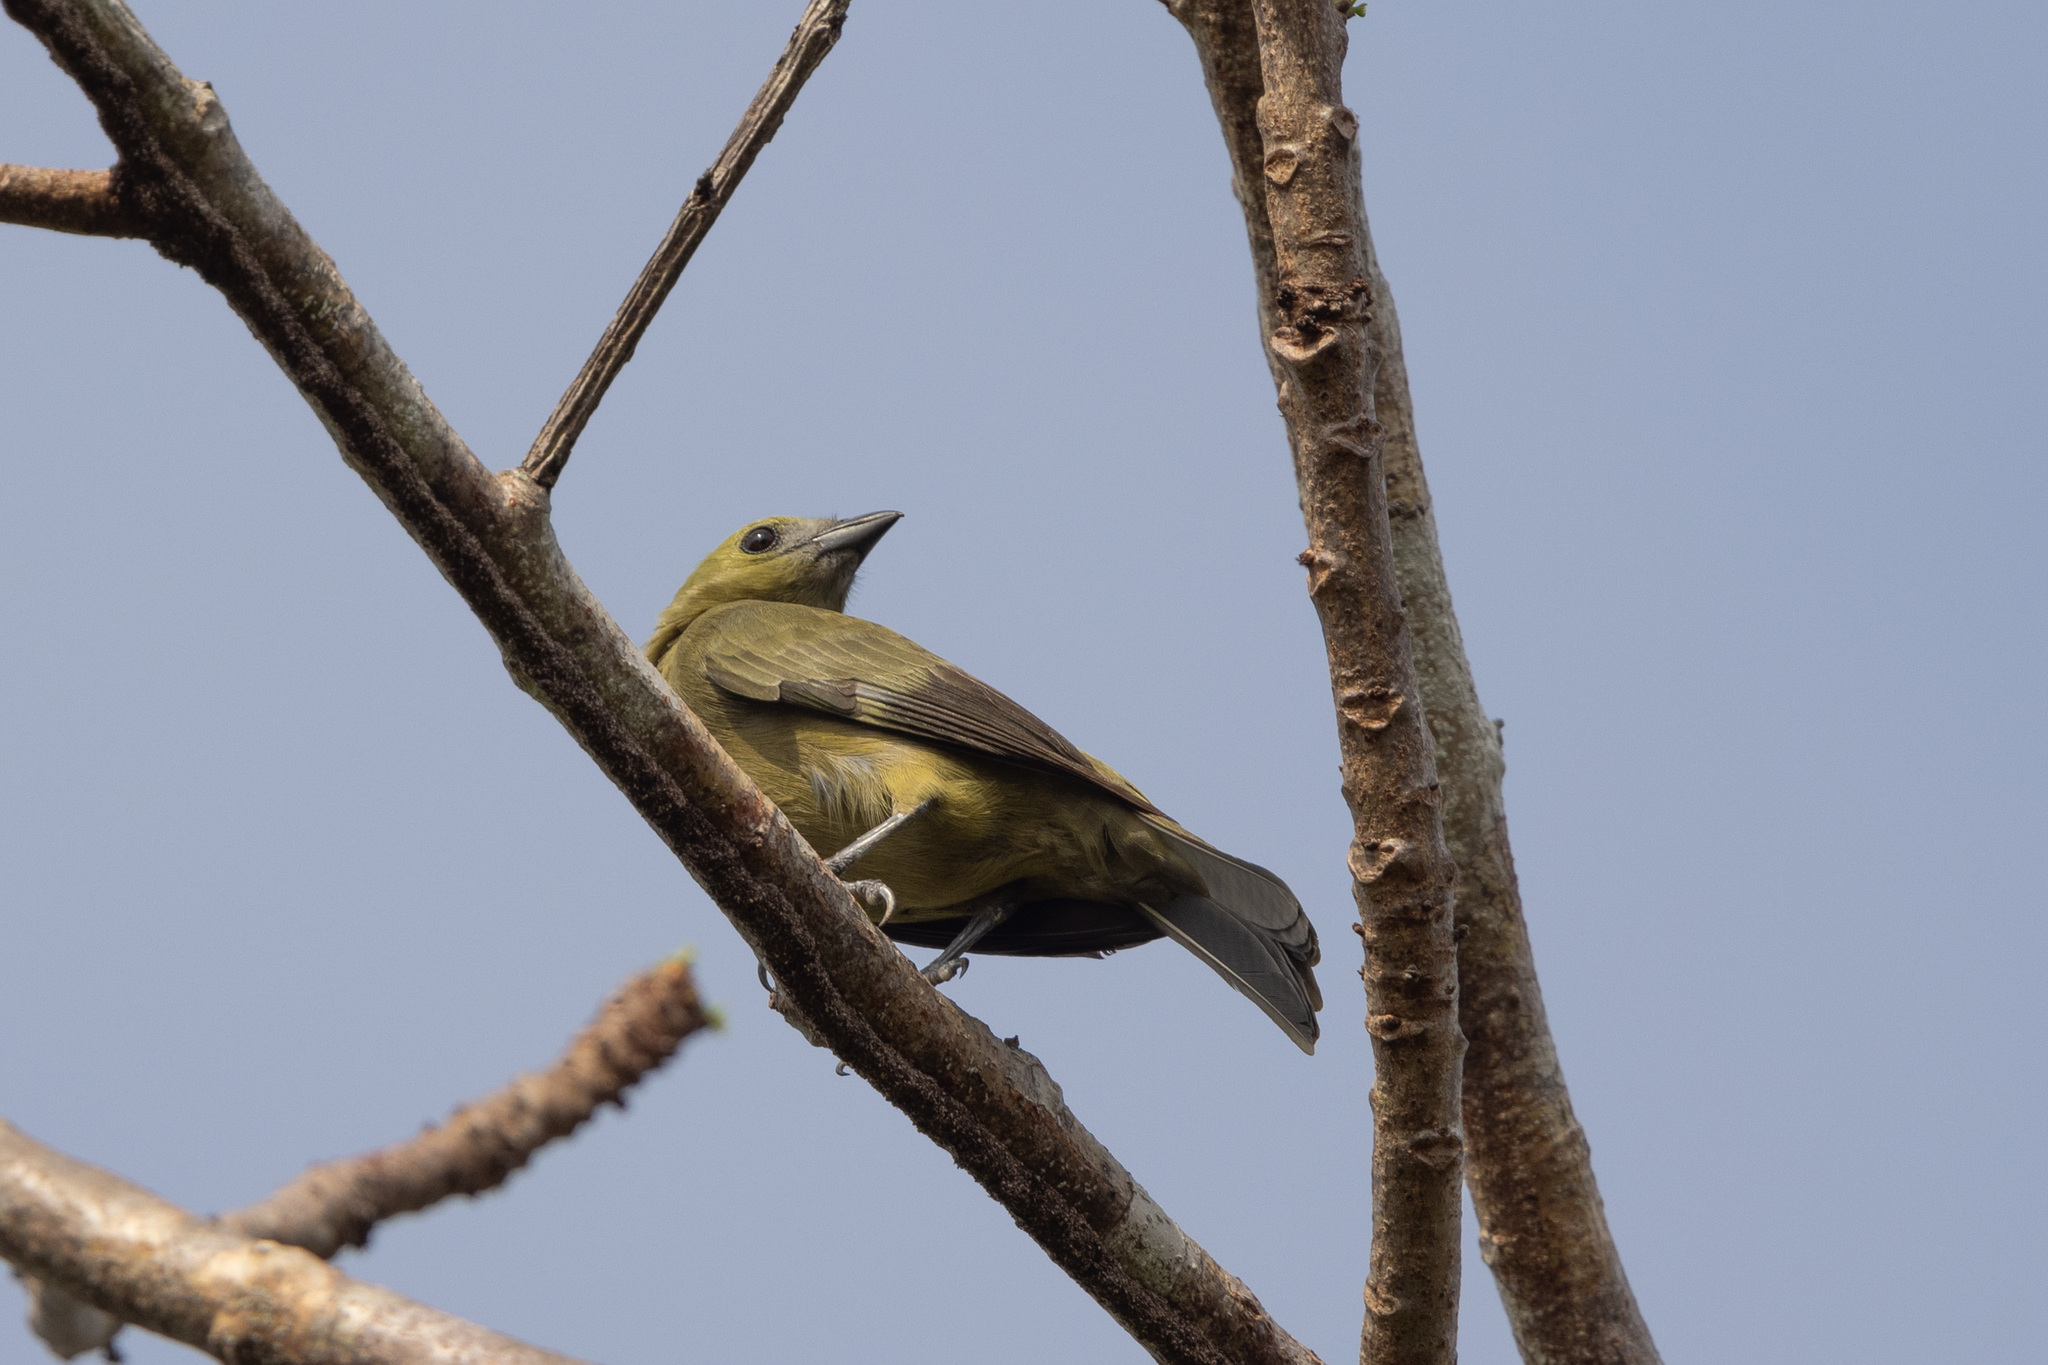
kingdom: Animalia
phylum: Chordata
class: Aves
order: Passeriformes
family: Thraupidae
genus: Thraupis
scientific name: Thraupis palmarum
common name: Palm tanager
